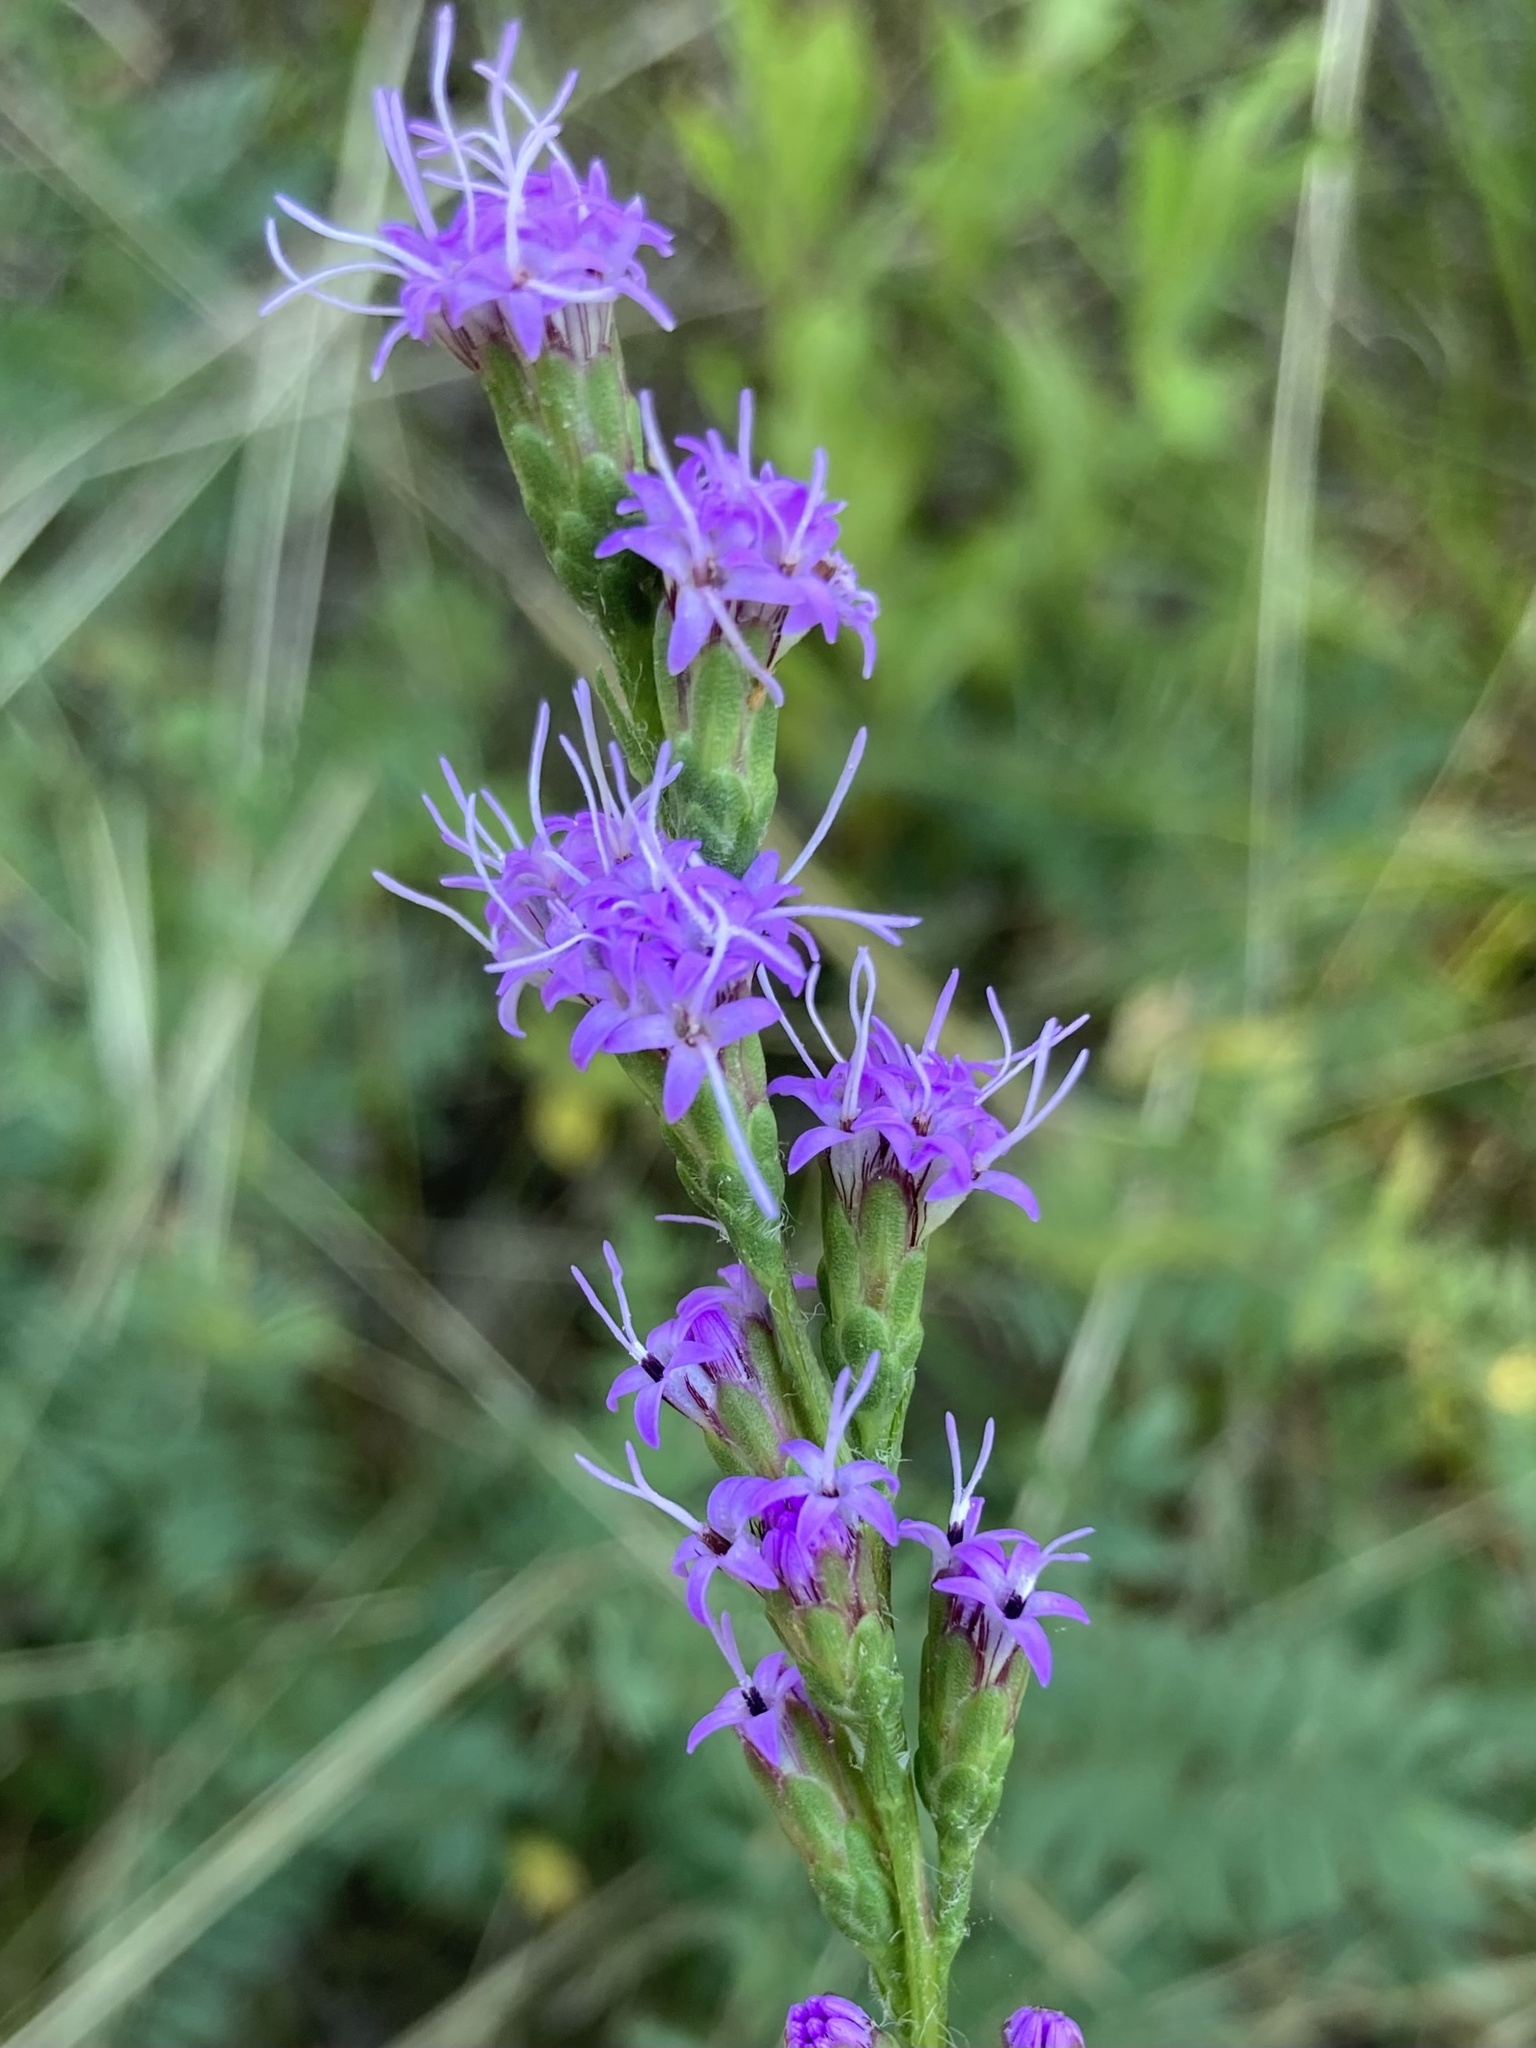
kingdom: Plantae
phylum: Tracheophyta
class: Magnoliopsida
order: Asterales
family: Asteraceae
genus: Liatris
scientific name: Liatris pilosa
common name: Grass-leaf gayfeather
